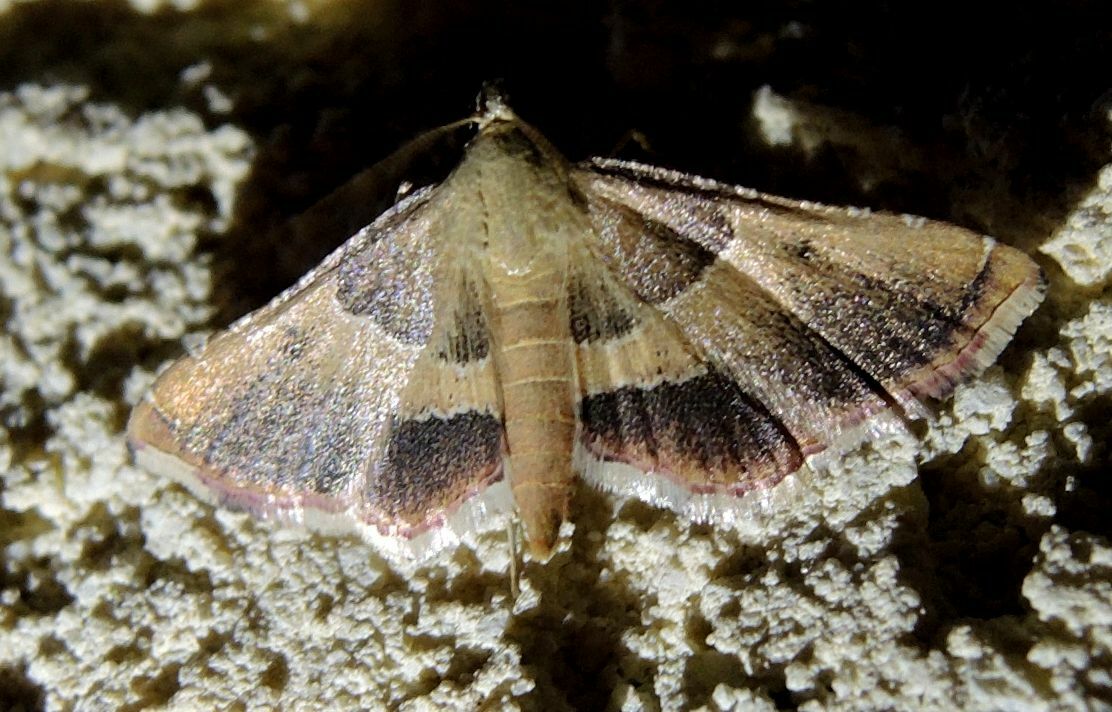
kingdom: Animalia
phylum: Arthropoda
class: Insecta
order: Lepidoptera
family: Pyralidae
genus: Endotricha
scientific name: Endotricha flammealis
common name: Rosy tabby
